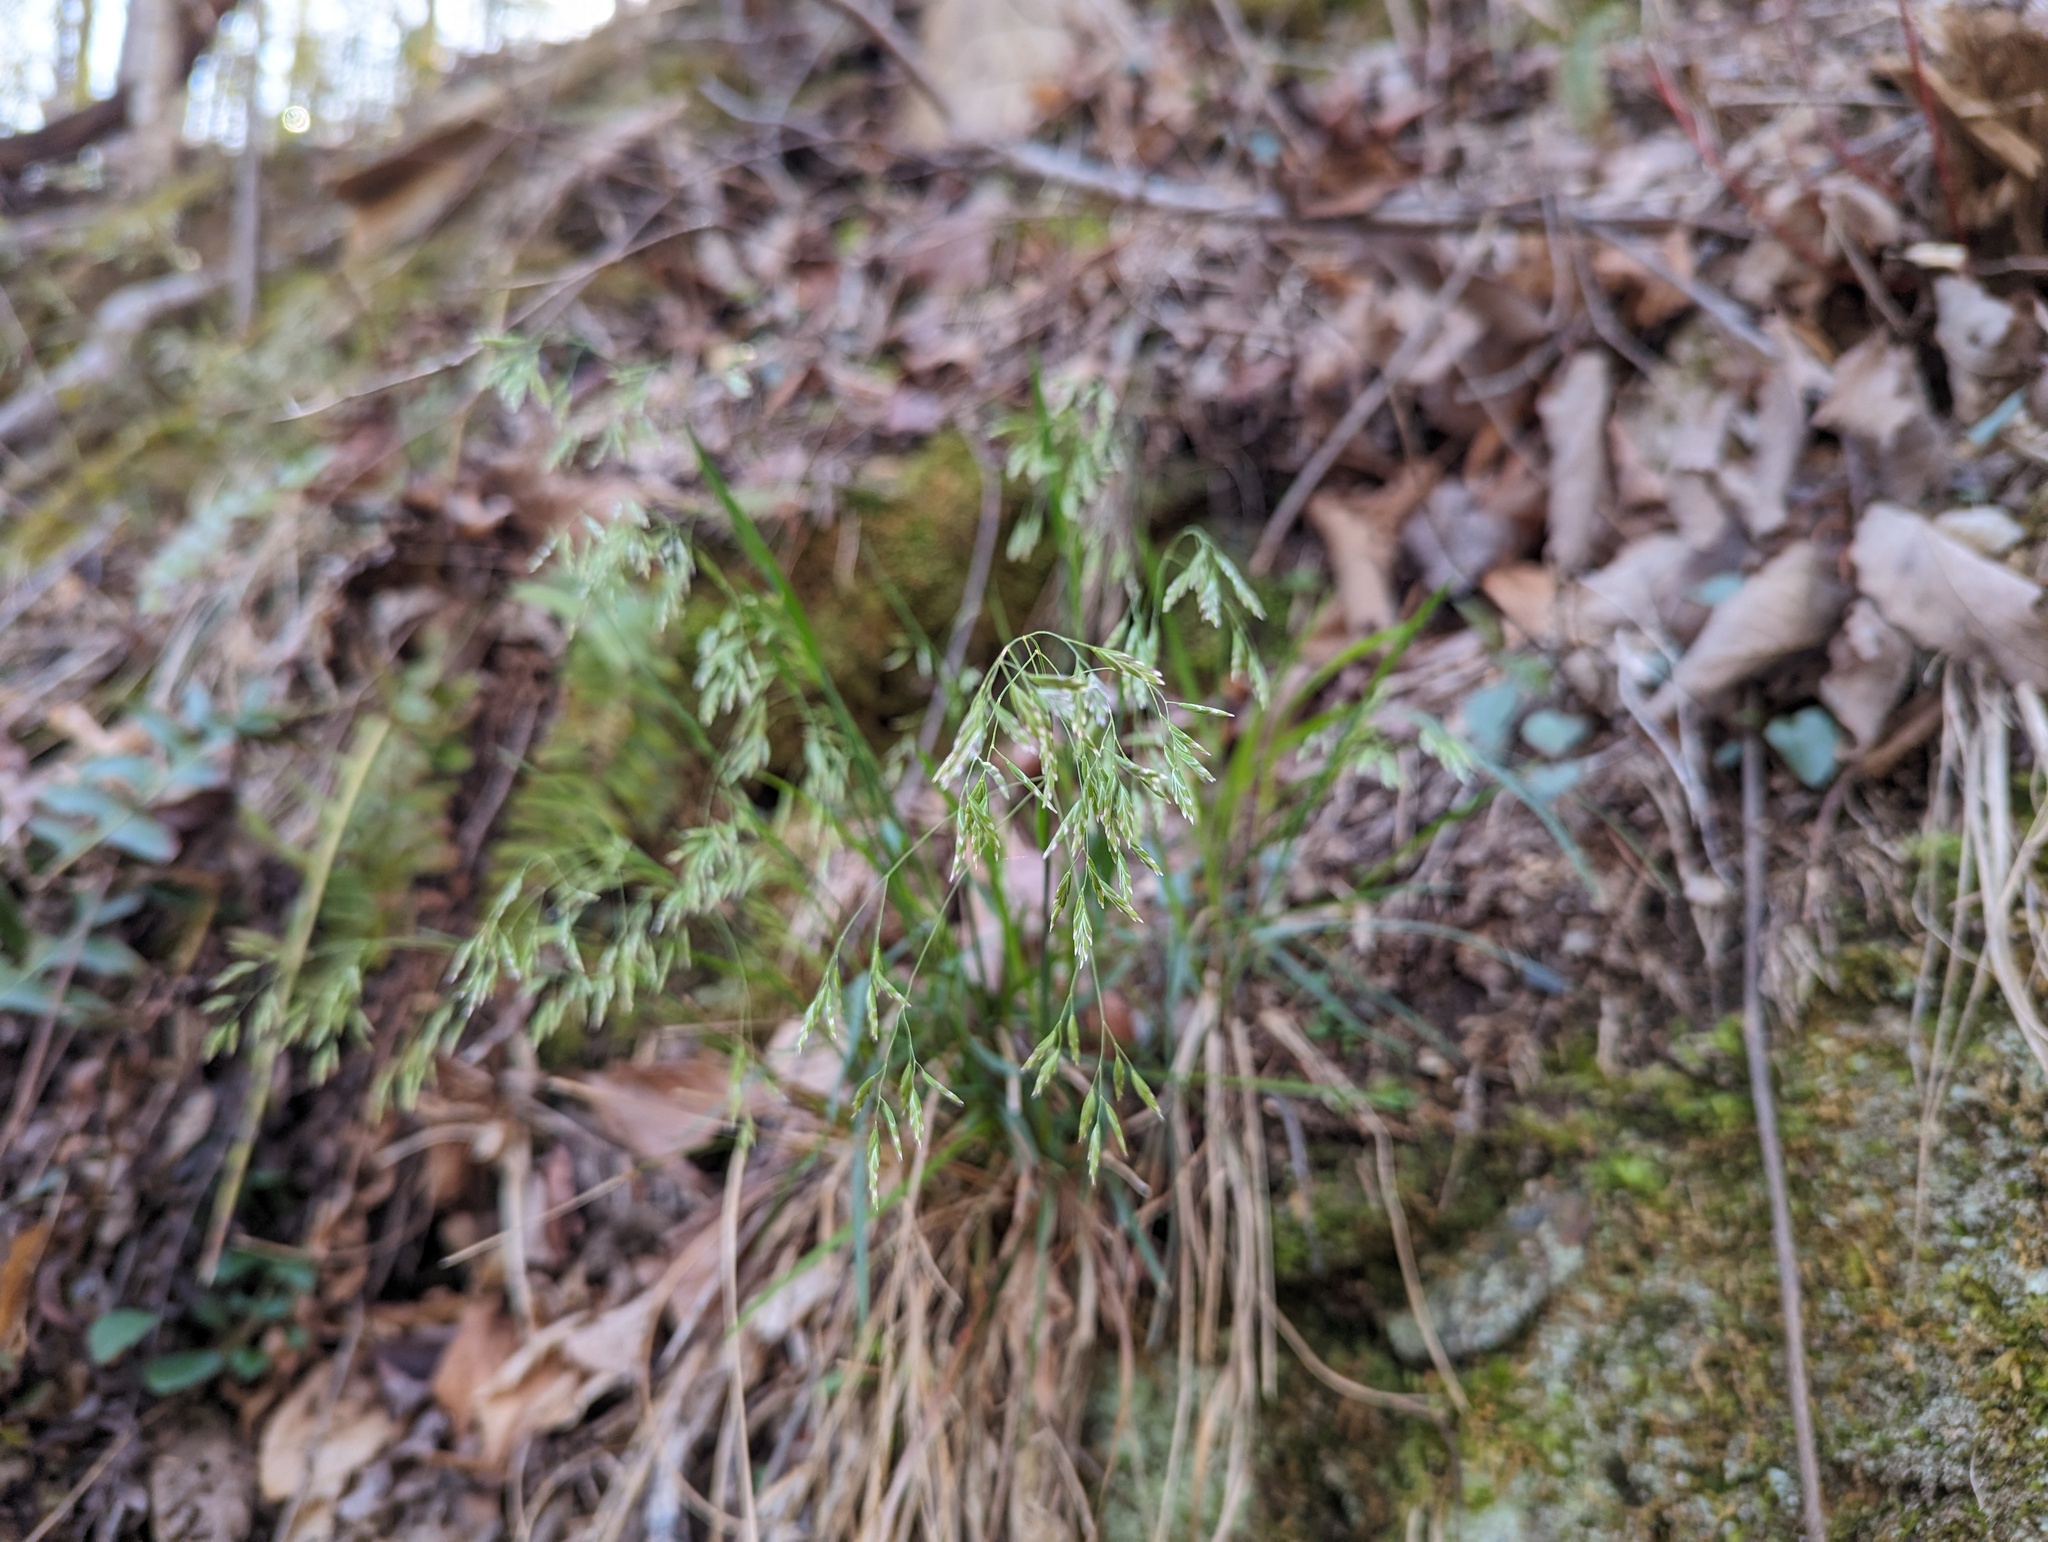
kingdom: Plantae
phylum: Tracheophyta
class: Liliopsida
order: Poales
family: Poaceae
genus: Poa
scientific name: Poa cuspidata
